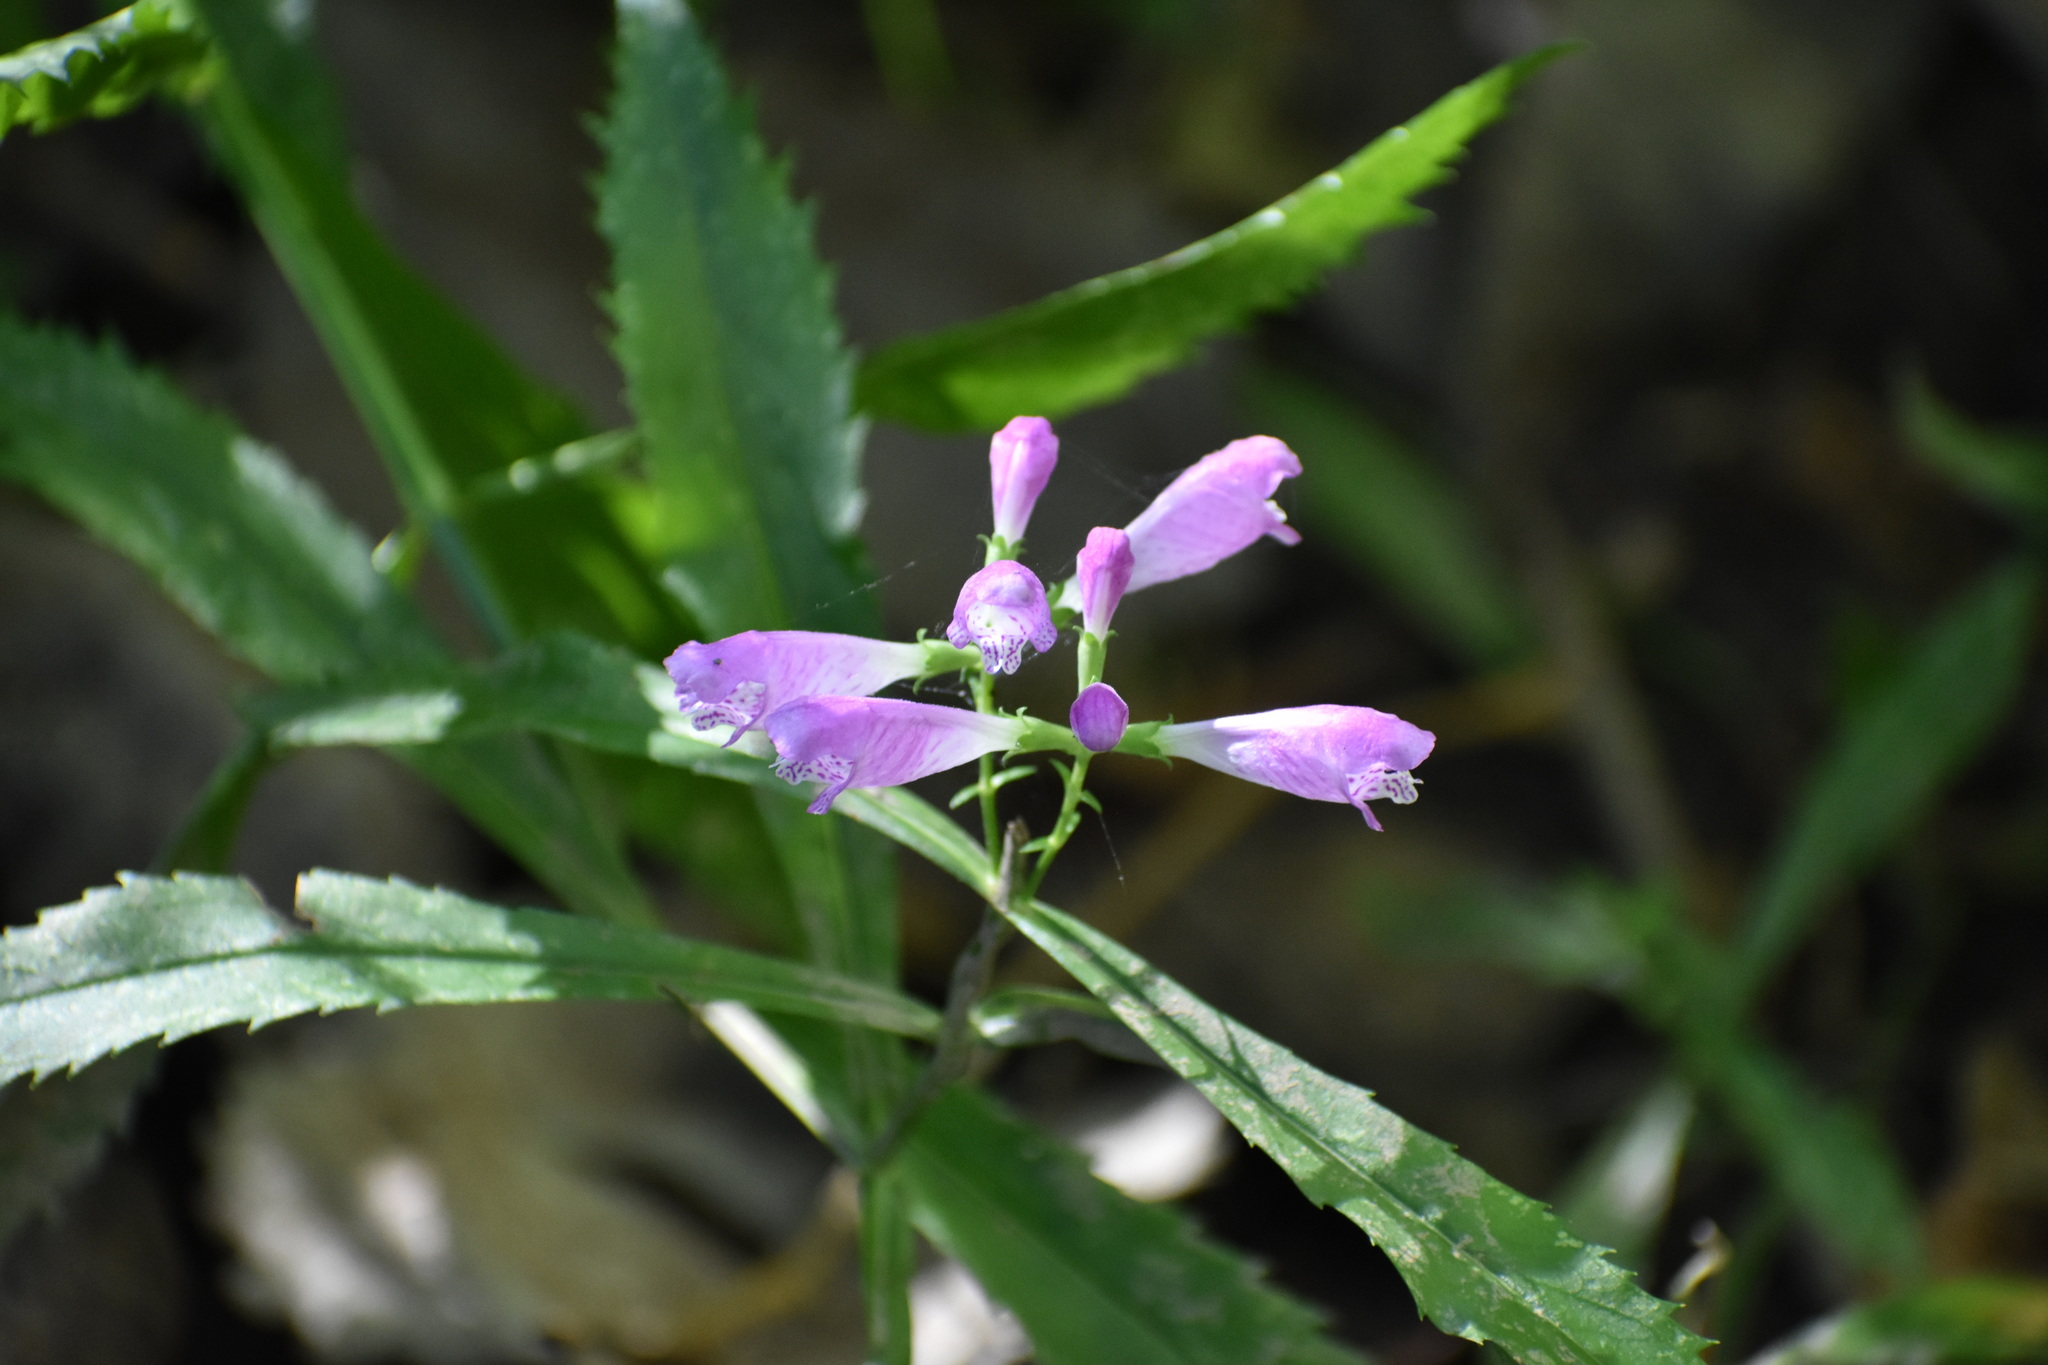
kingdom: Plantae
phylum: Tracheophyta
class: Magnoliopsida
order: Lamiales
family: Lamiaceae
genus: Physostegia
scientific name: Physostegia virginiana
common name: Obedient-plant
